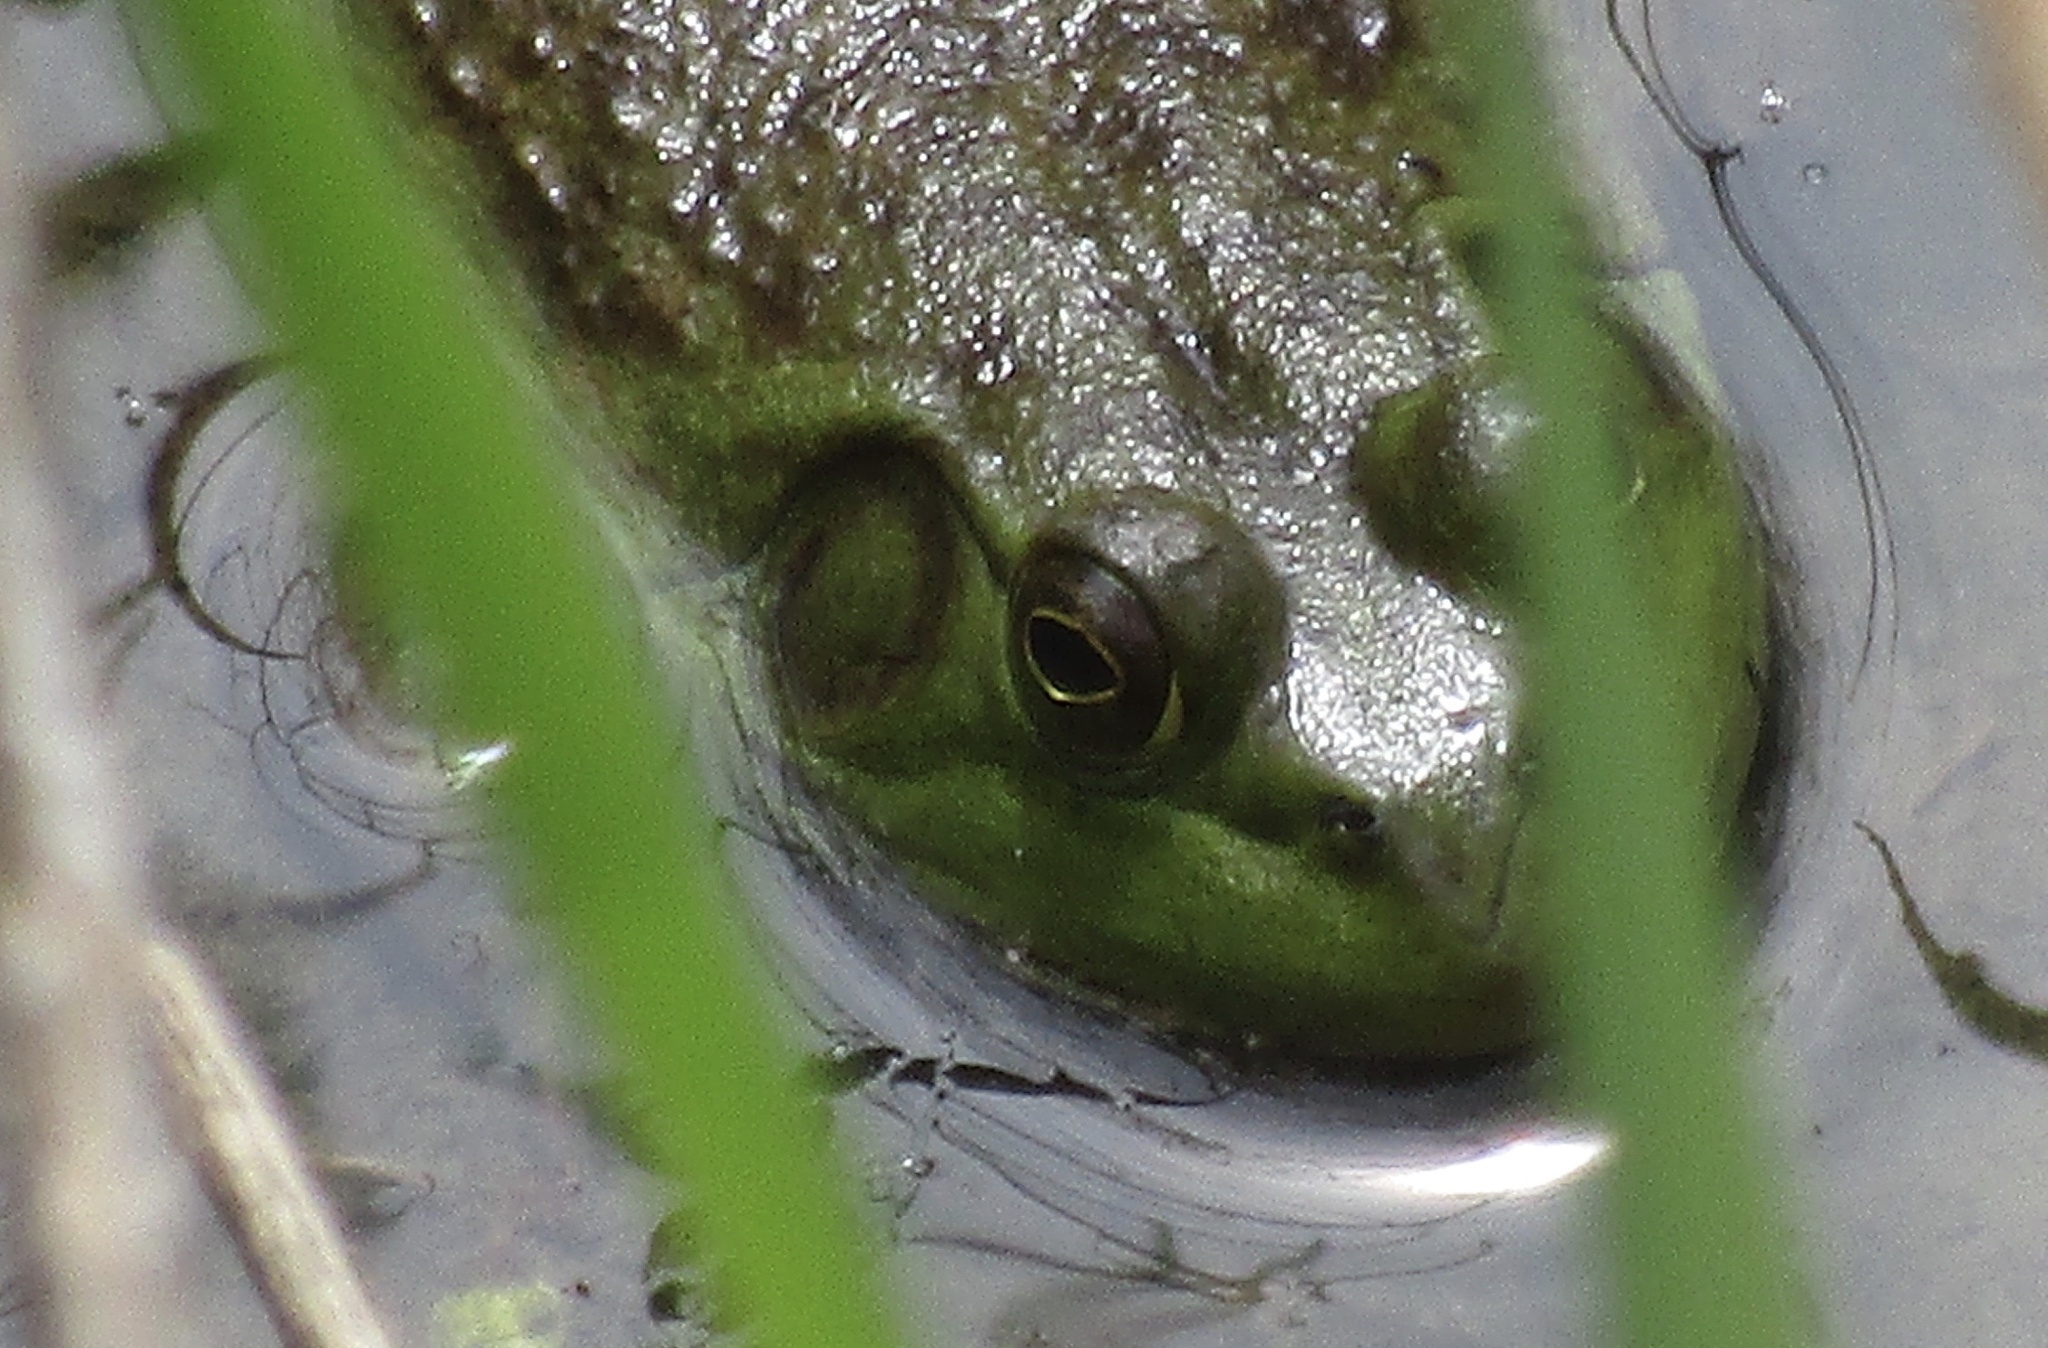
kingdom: Animalia
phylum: Chordata
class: Amphibia
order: Anura
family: Ranidae
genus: Lithobates
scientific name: Lithobates catesbeianus
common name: American bullfrog
